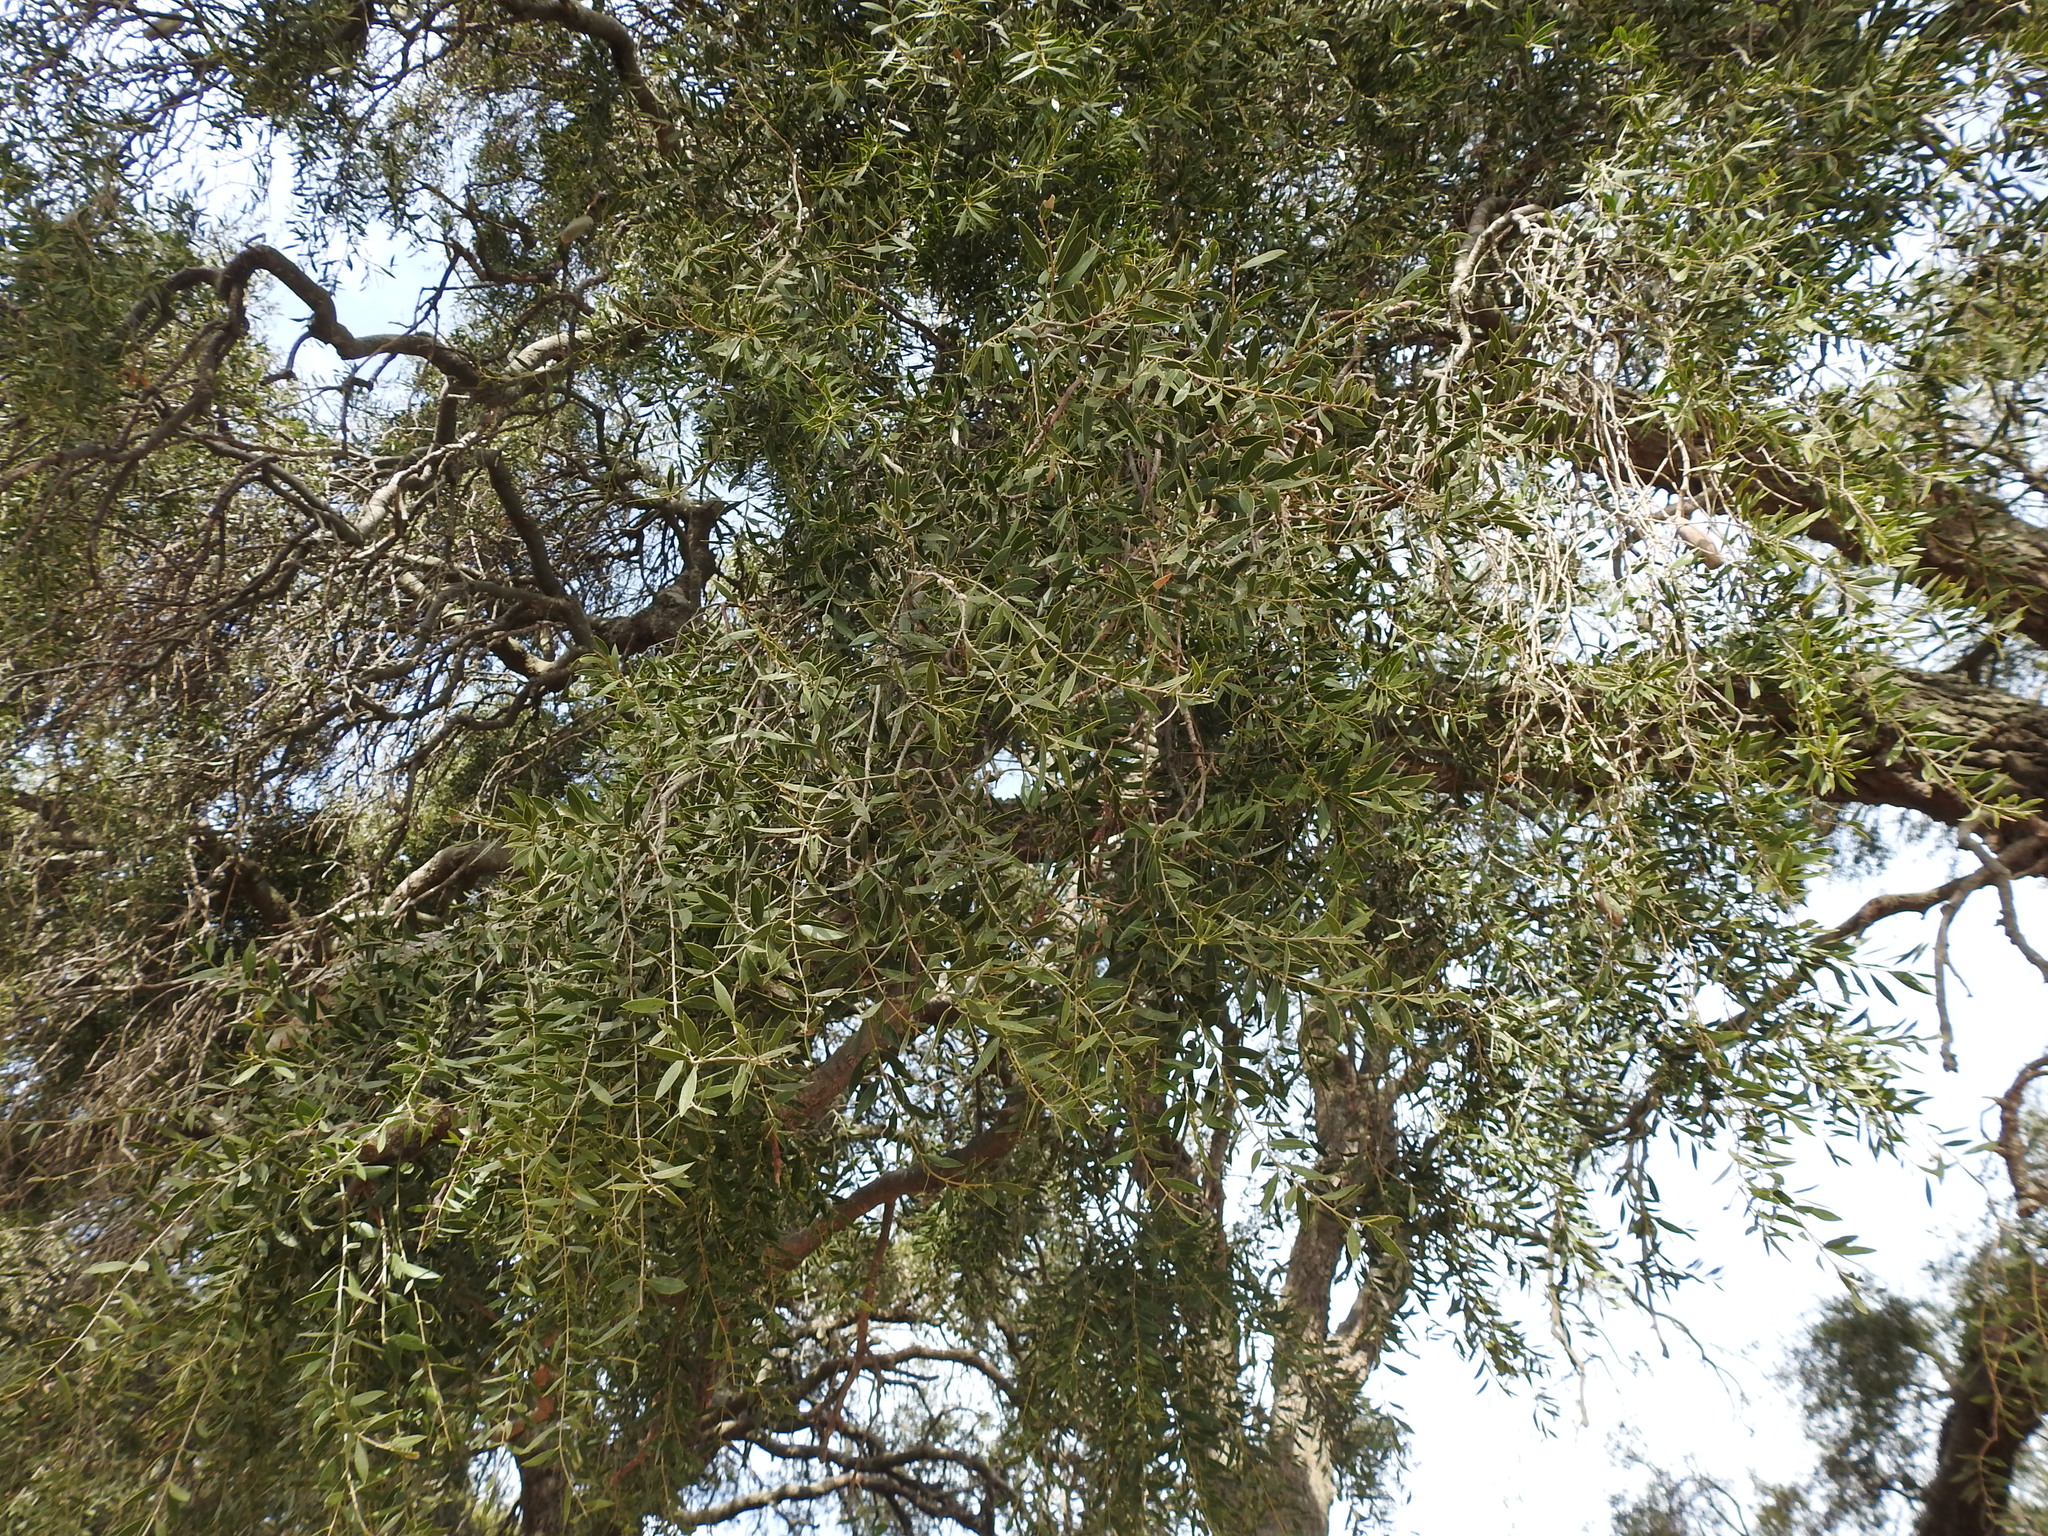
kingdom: Plantae
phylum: Tracheophyta
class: Magnoliopsida
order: Gentianales
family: Apocynaceae
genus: Aspidosperma
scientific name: Aspidosperma quebracho-blanco
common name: White quebracho
